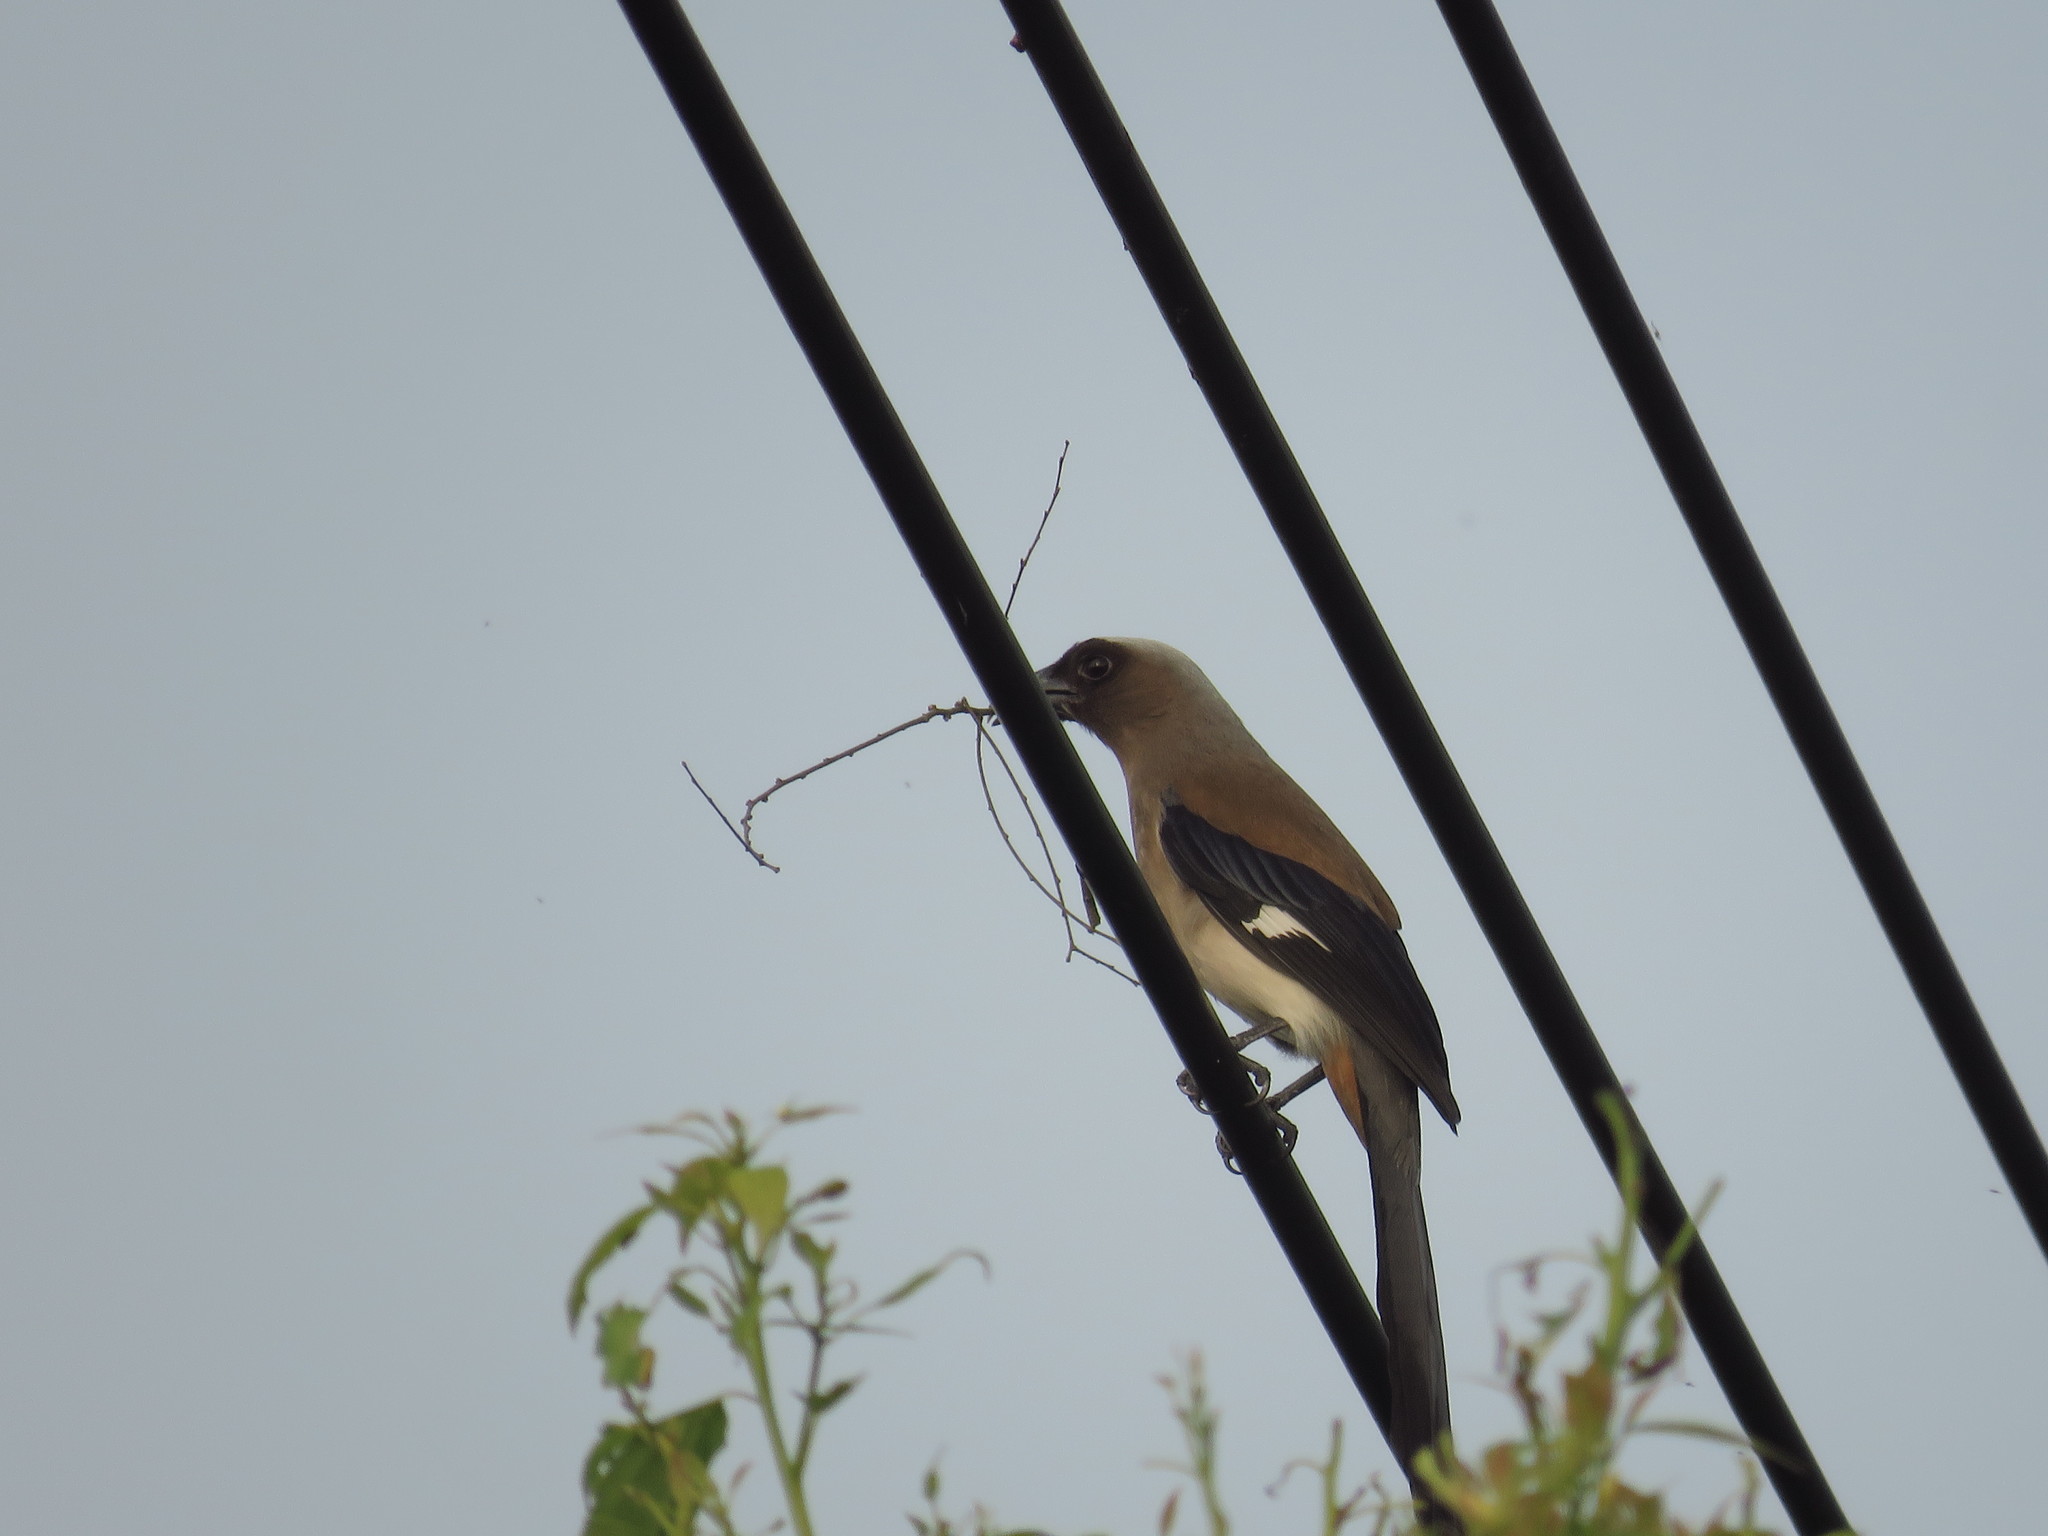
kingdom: Animalia
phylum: Chordata
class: Aves
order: Passeriformes
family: Corvidae
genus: Dendrocitta
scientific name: Dendrocitta formosae
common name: Grey treepie
